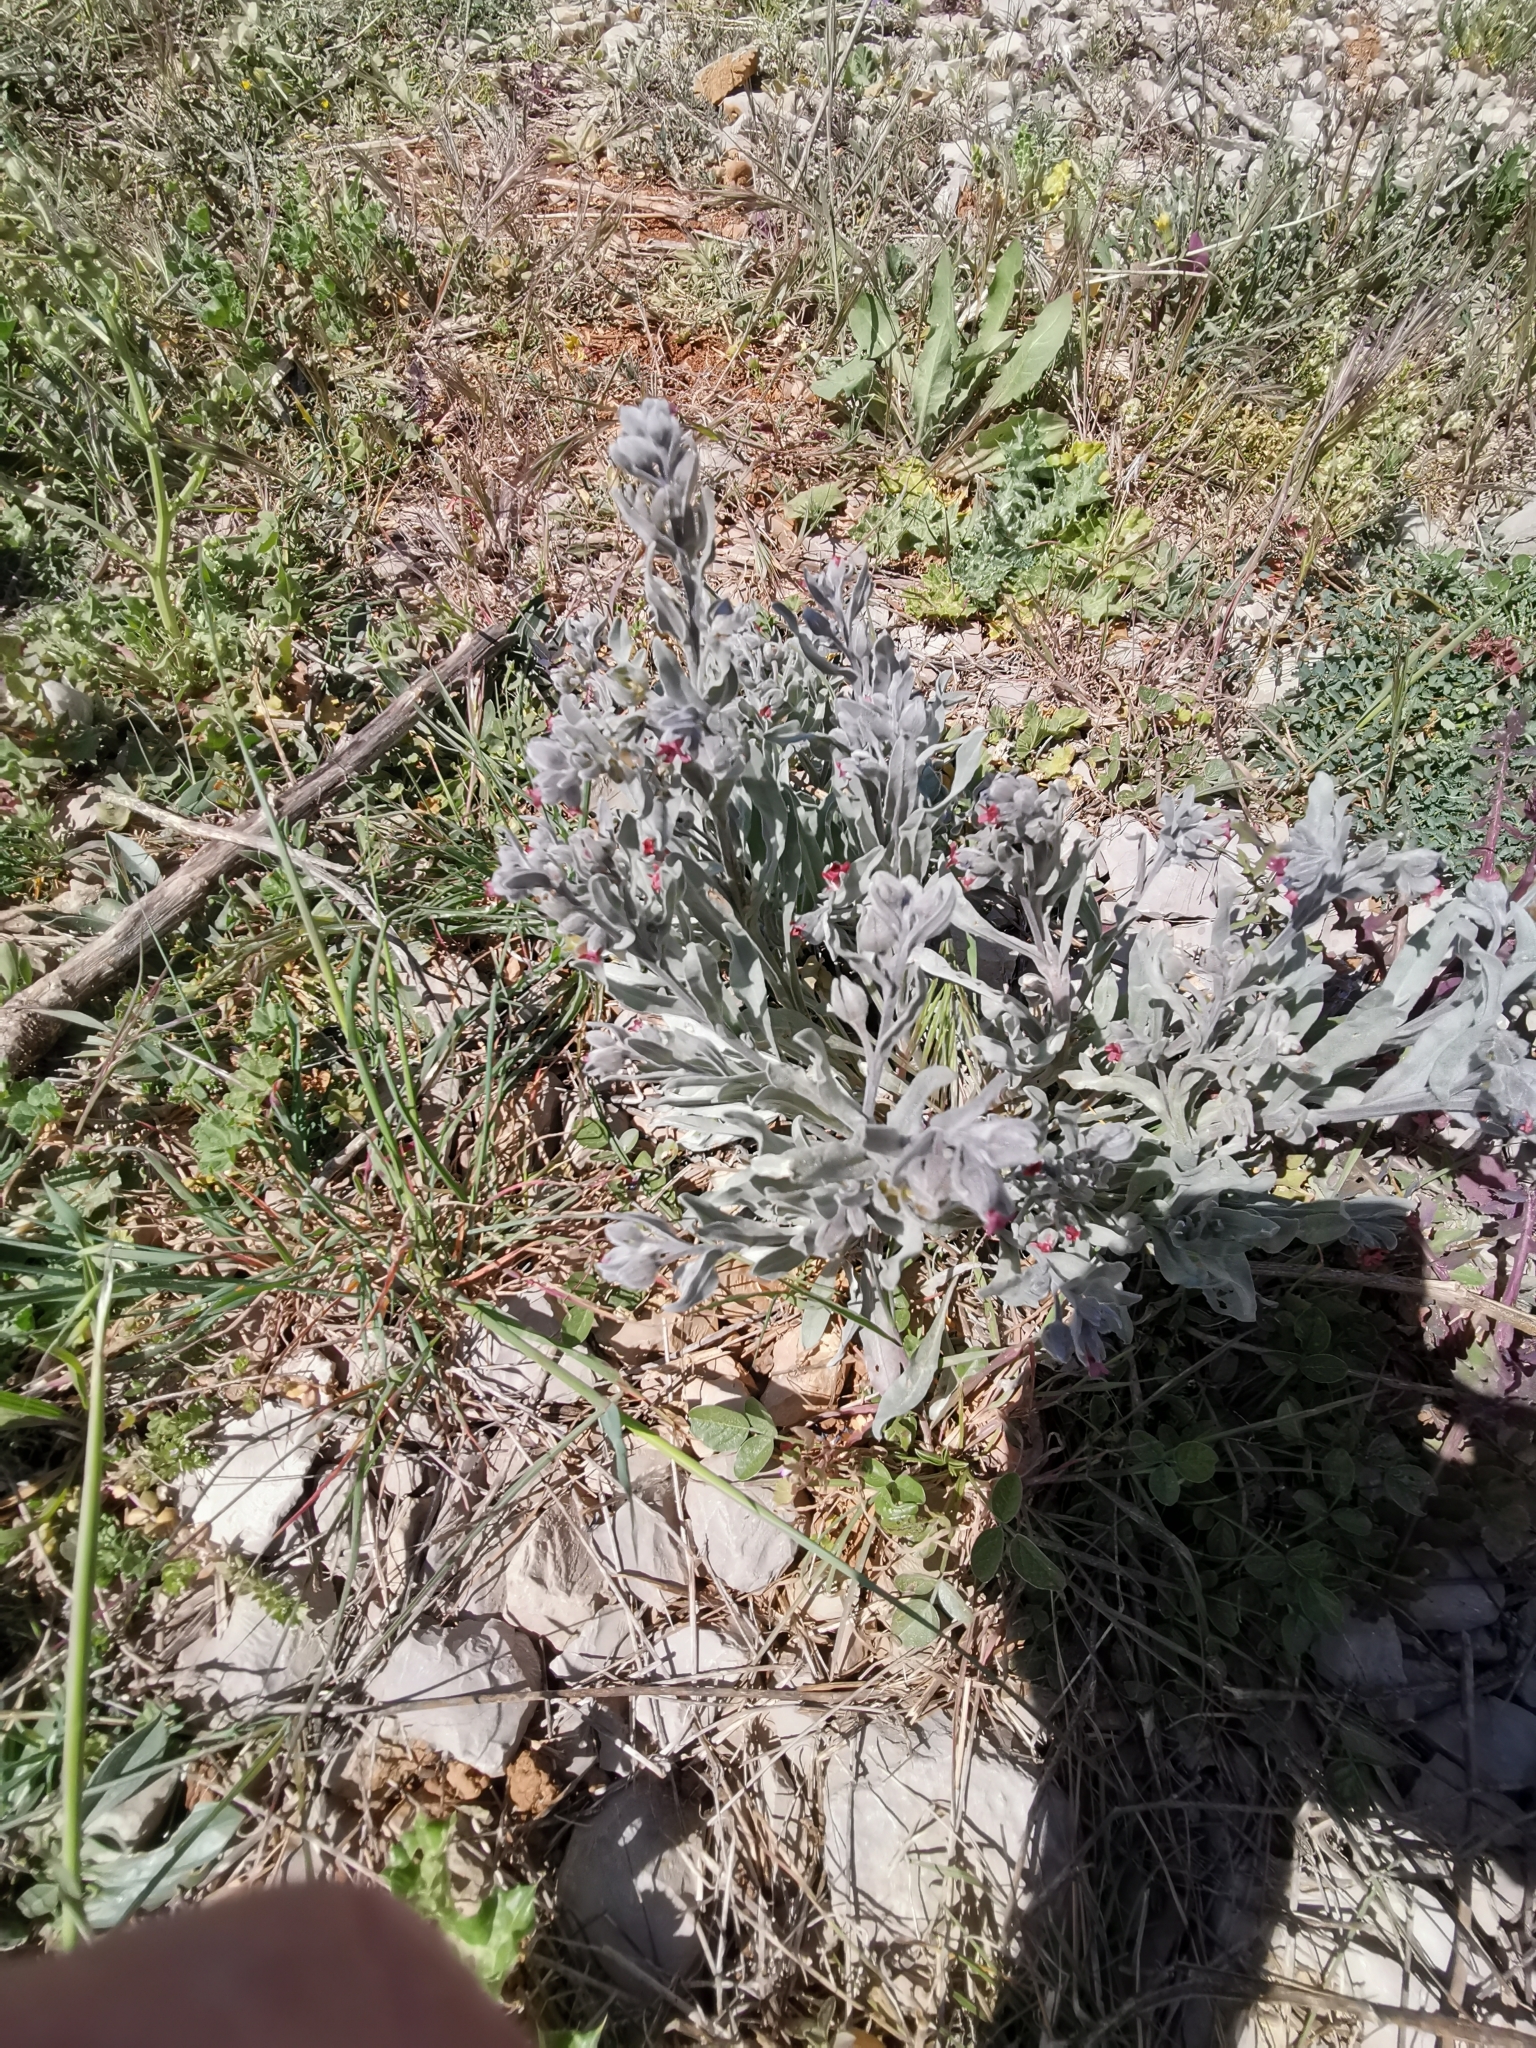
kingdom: Plantae
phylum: Tracheophyta
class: Magnoliopsida
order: Boraginales
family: Boraginaceae
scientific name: Boraginaceae
